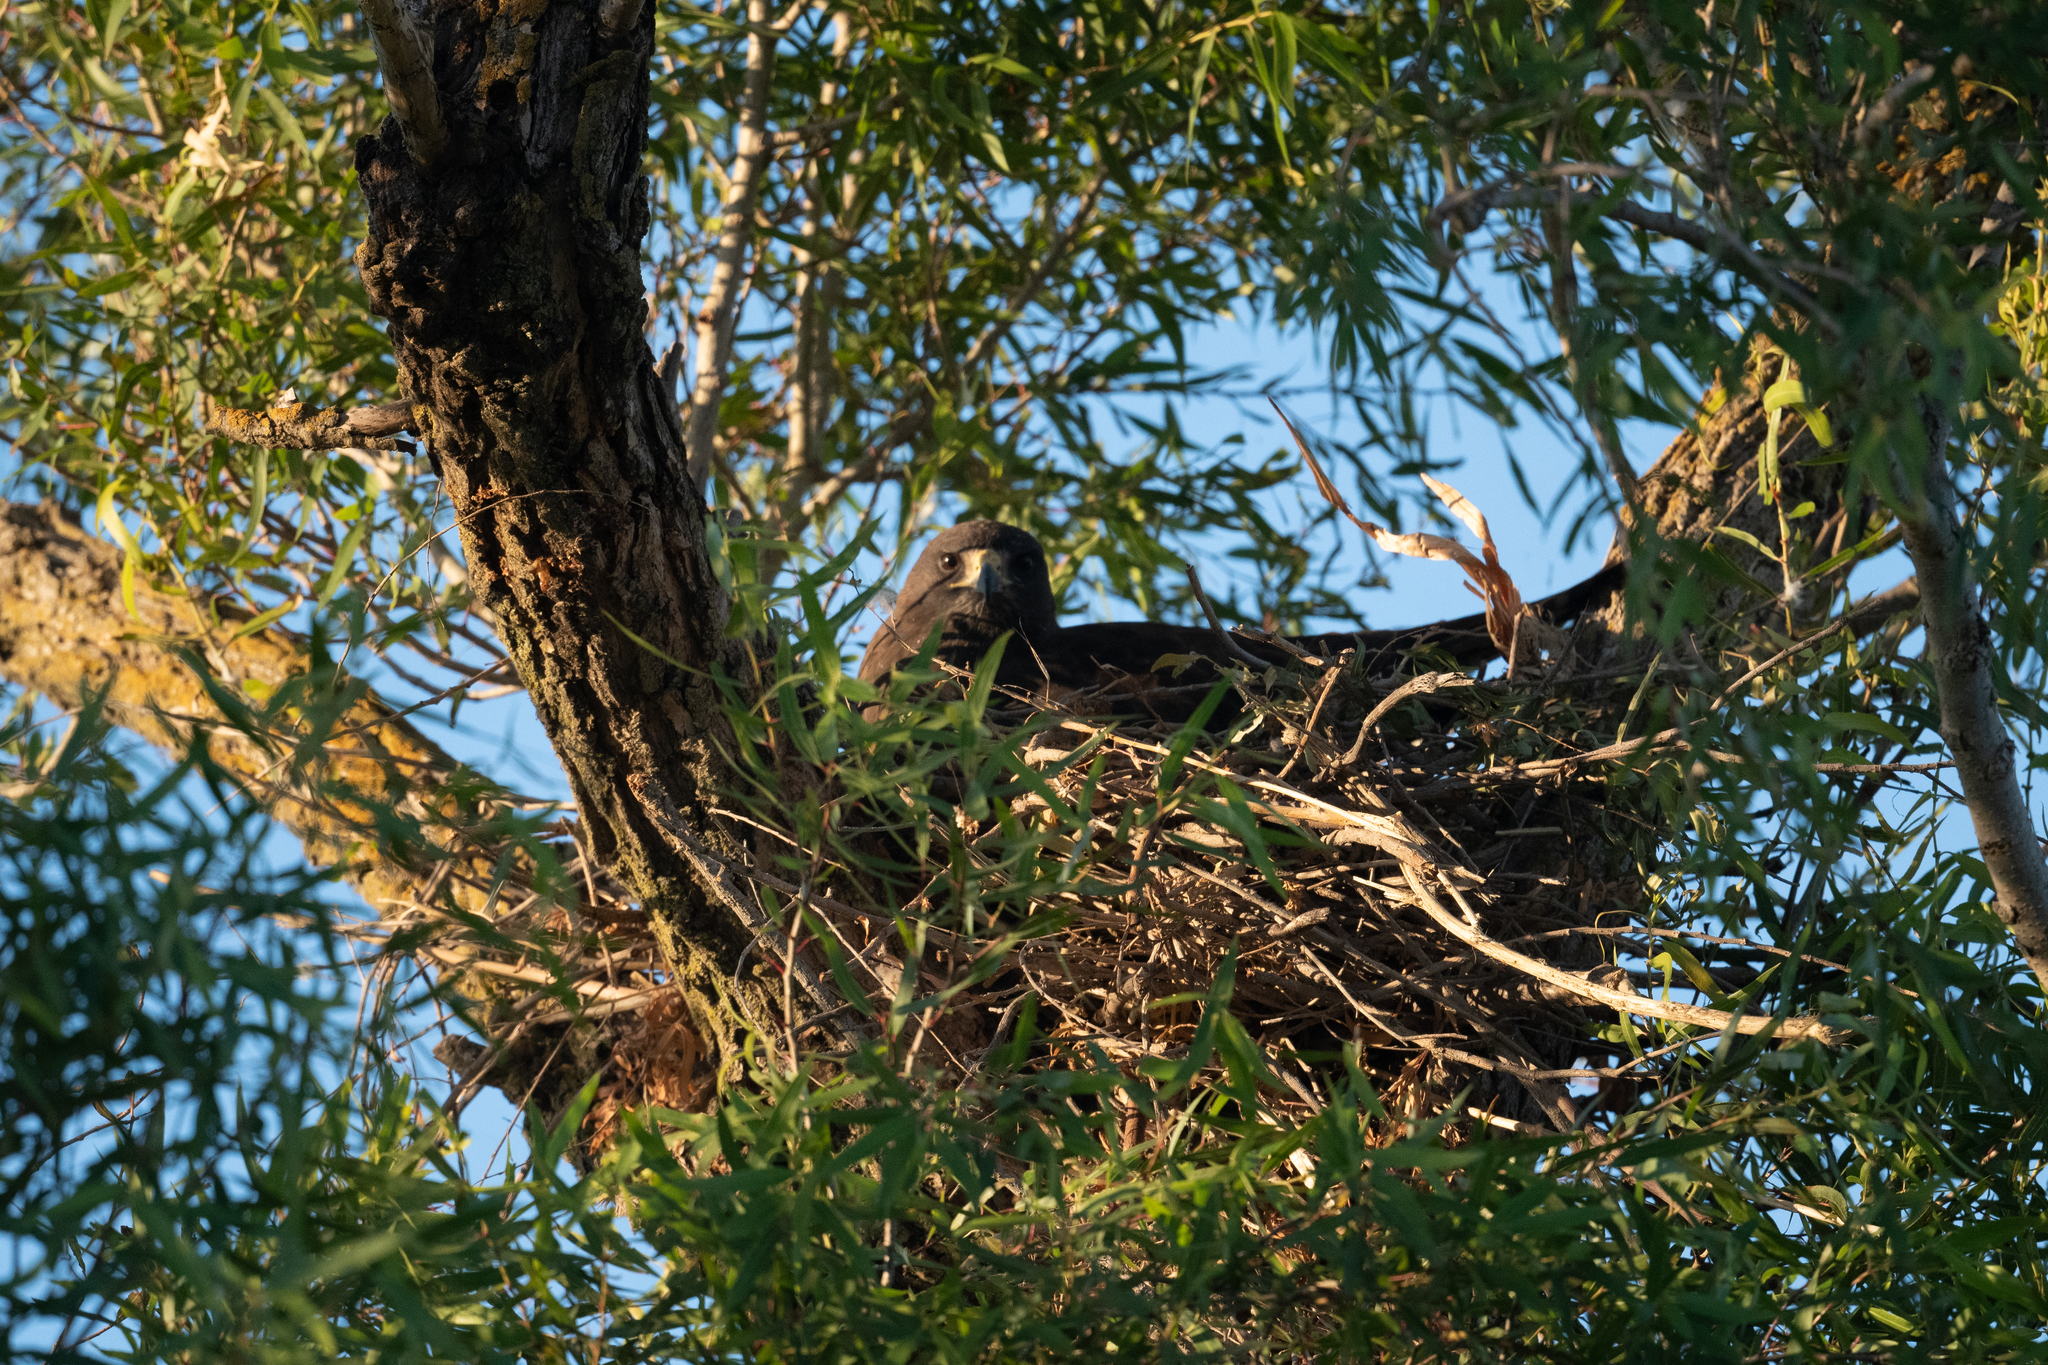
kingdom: Animalia
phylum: Chordata
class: Aves
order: Accipitriformes
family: Accipitridae
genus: Buteo
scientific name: Buteo swainsoni
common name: Swainson's hawk
